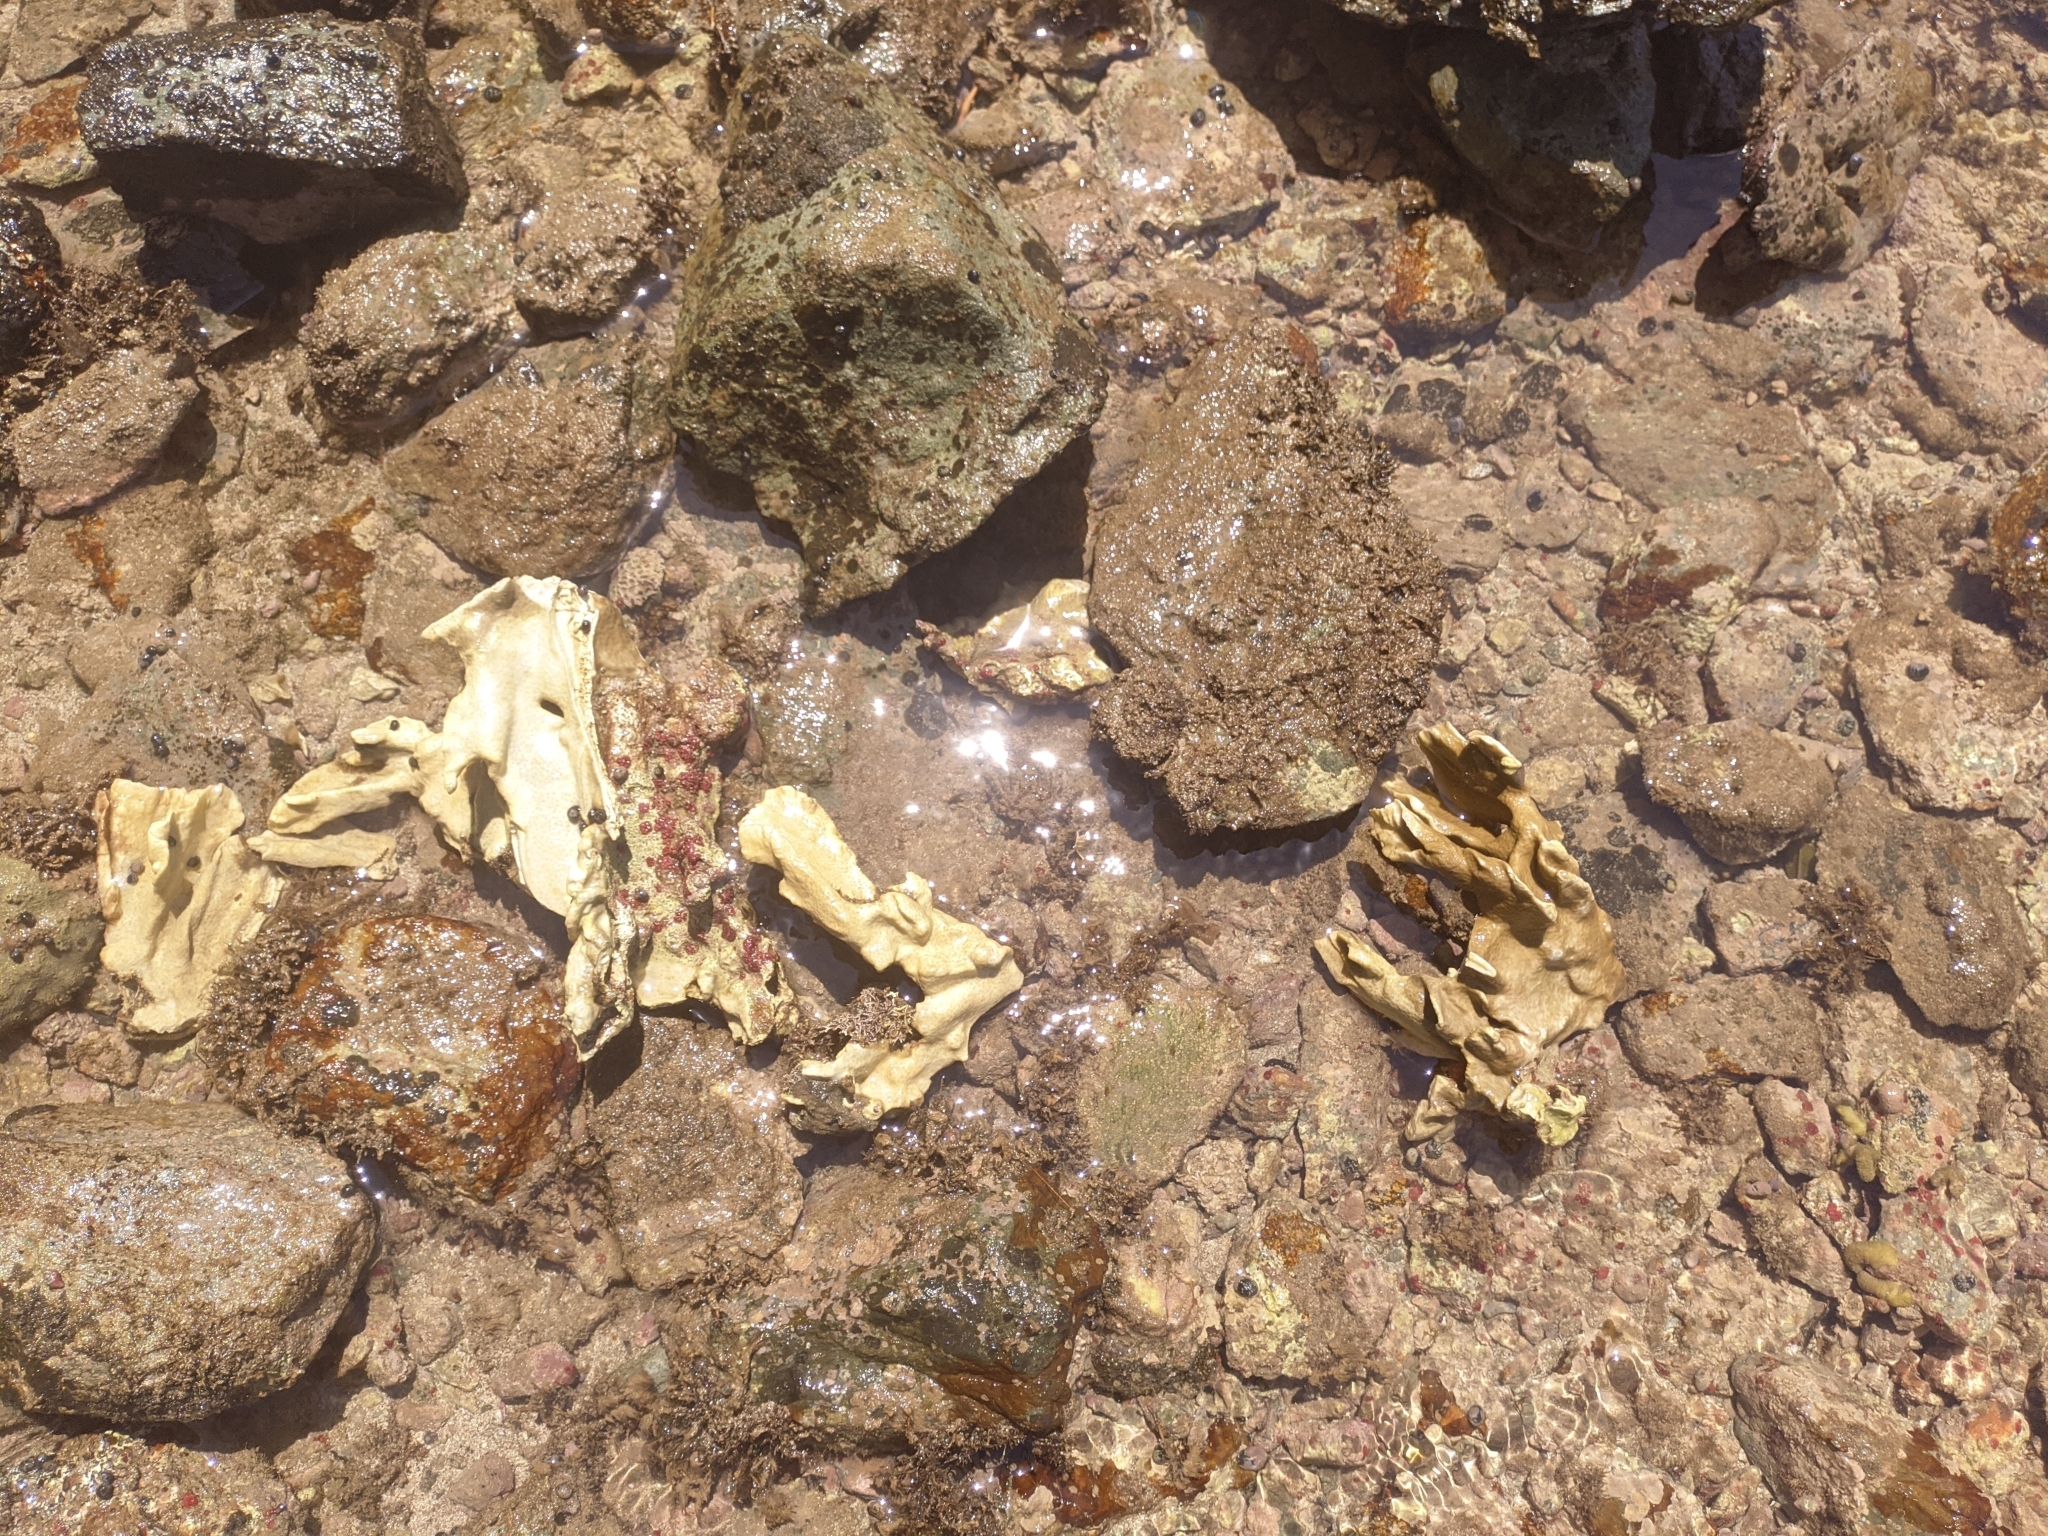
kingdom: Animalia
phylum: Cnidaria
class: Hydrozoa
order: Anthoathecata
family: Milleporidae
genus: Millepora
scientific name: Millepora complanata
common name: Bladed fire coral
